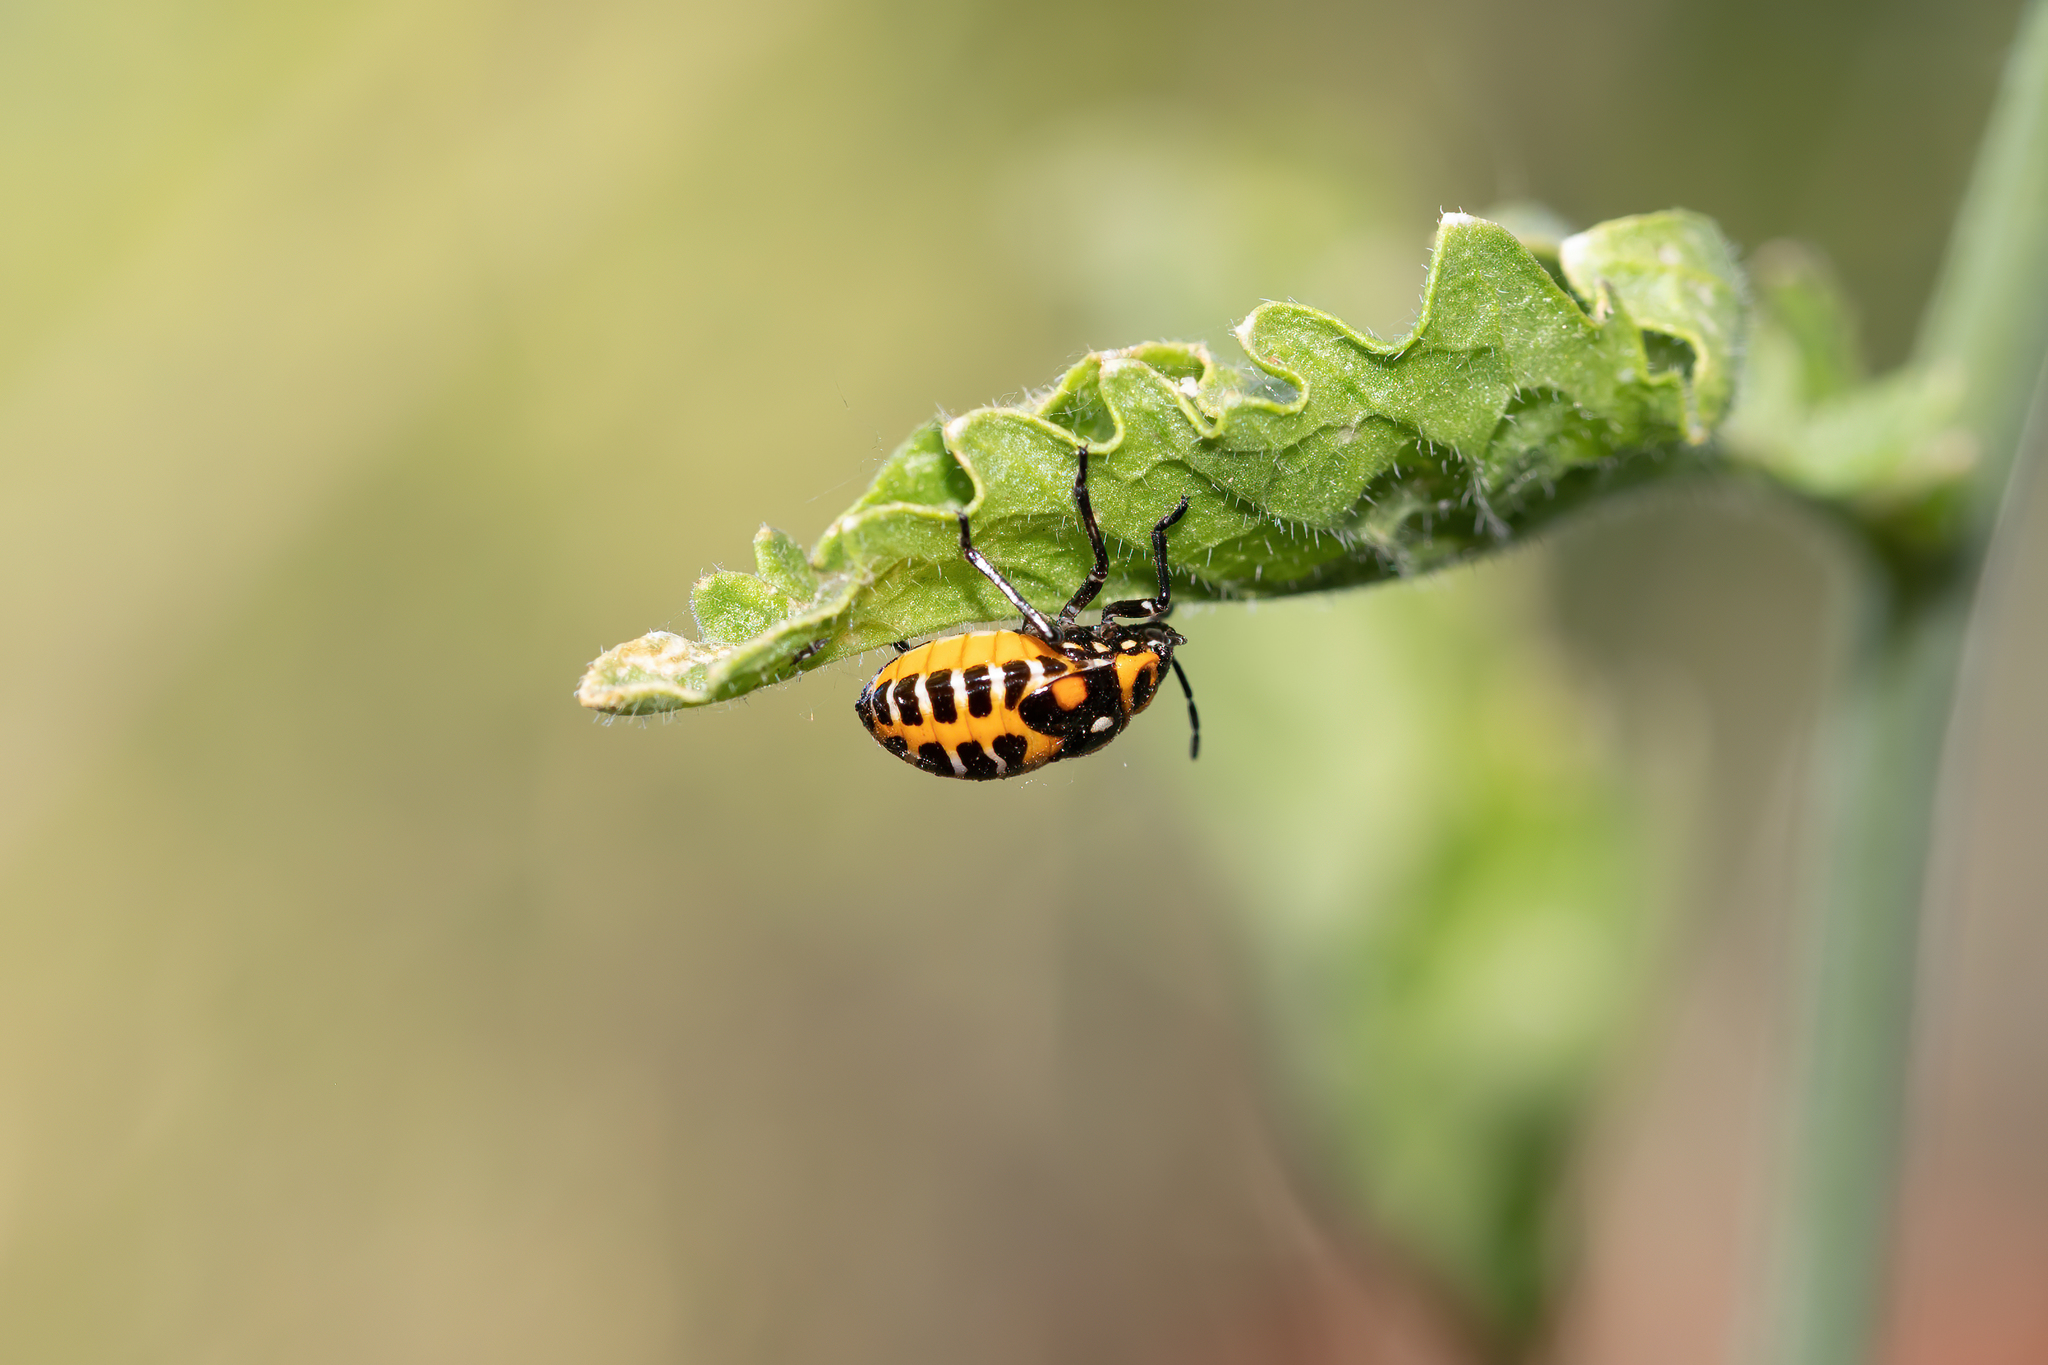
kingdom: Animalia
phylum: Arthropoda
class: Insecta
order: Hemiptera
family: Pentatomidae
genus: Murgantia
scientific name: Murgantia histrionica
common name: Harlequin bug
